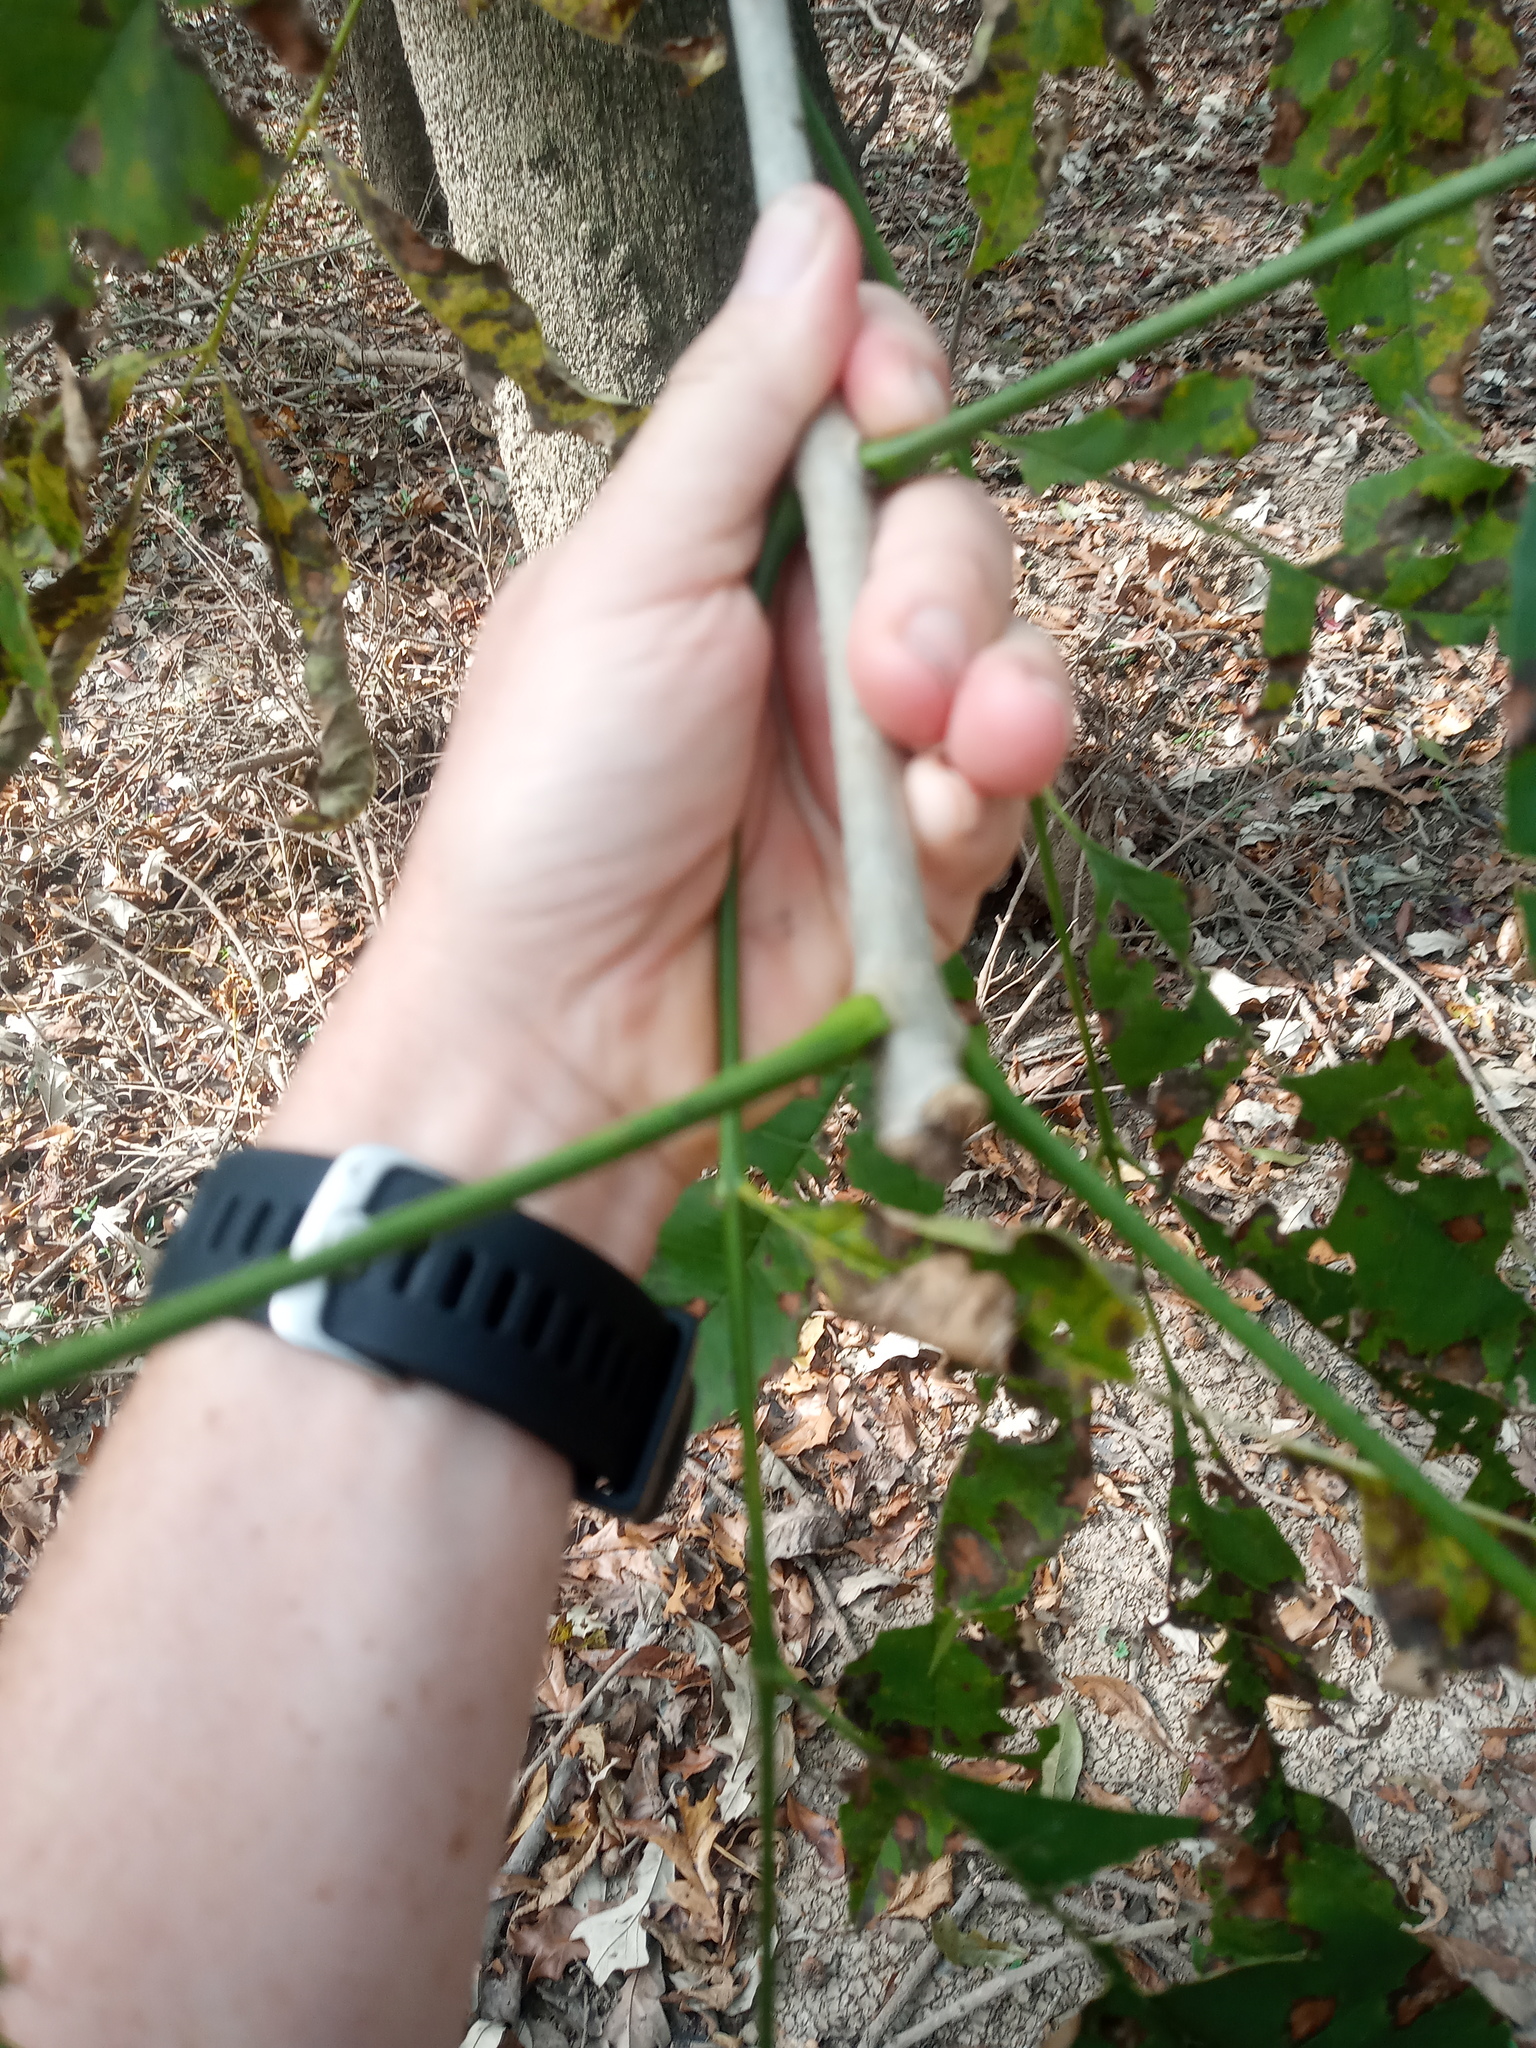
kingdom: Plantae
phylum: Tracheophyta
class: Magnoliopsida
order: Lamiales
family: Oleaceae
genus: Fraxinus
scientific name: Fraxinus pennsylvanica
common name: Green ash
